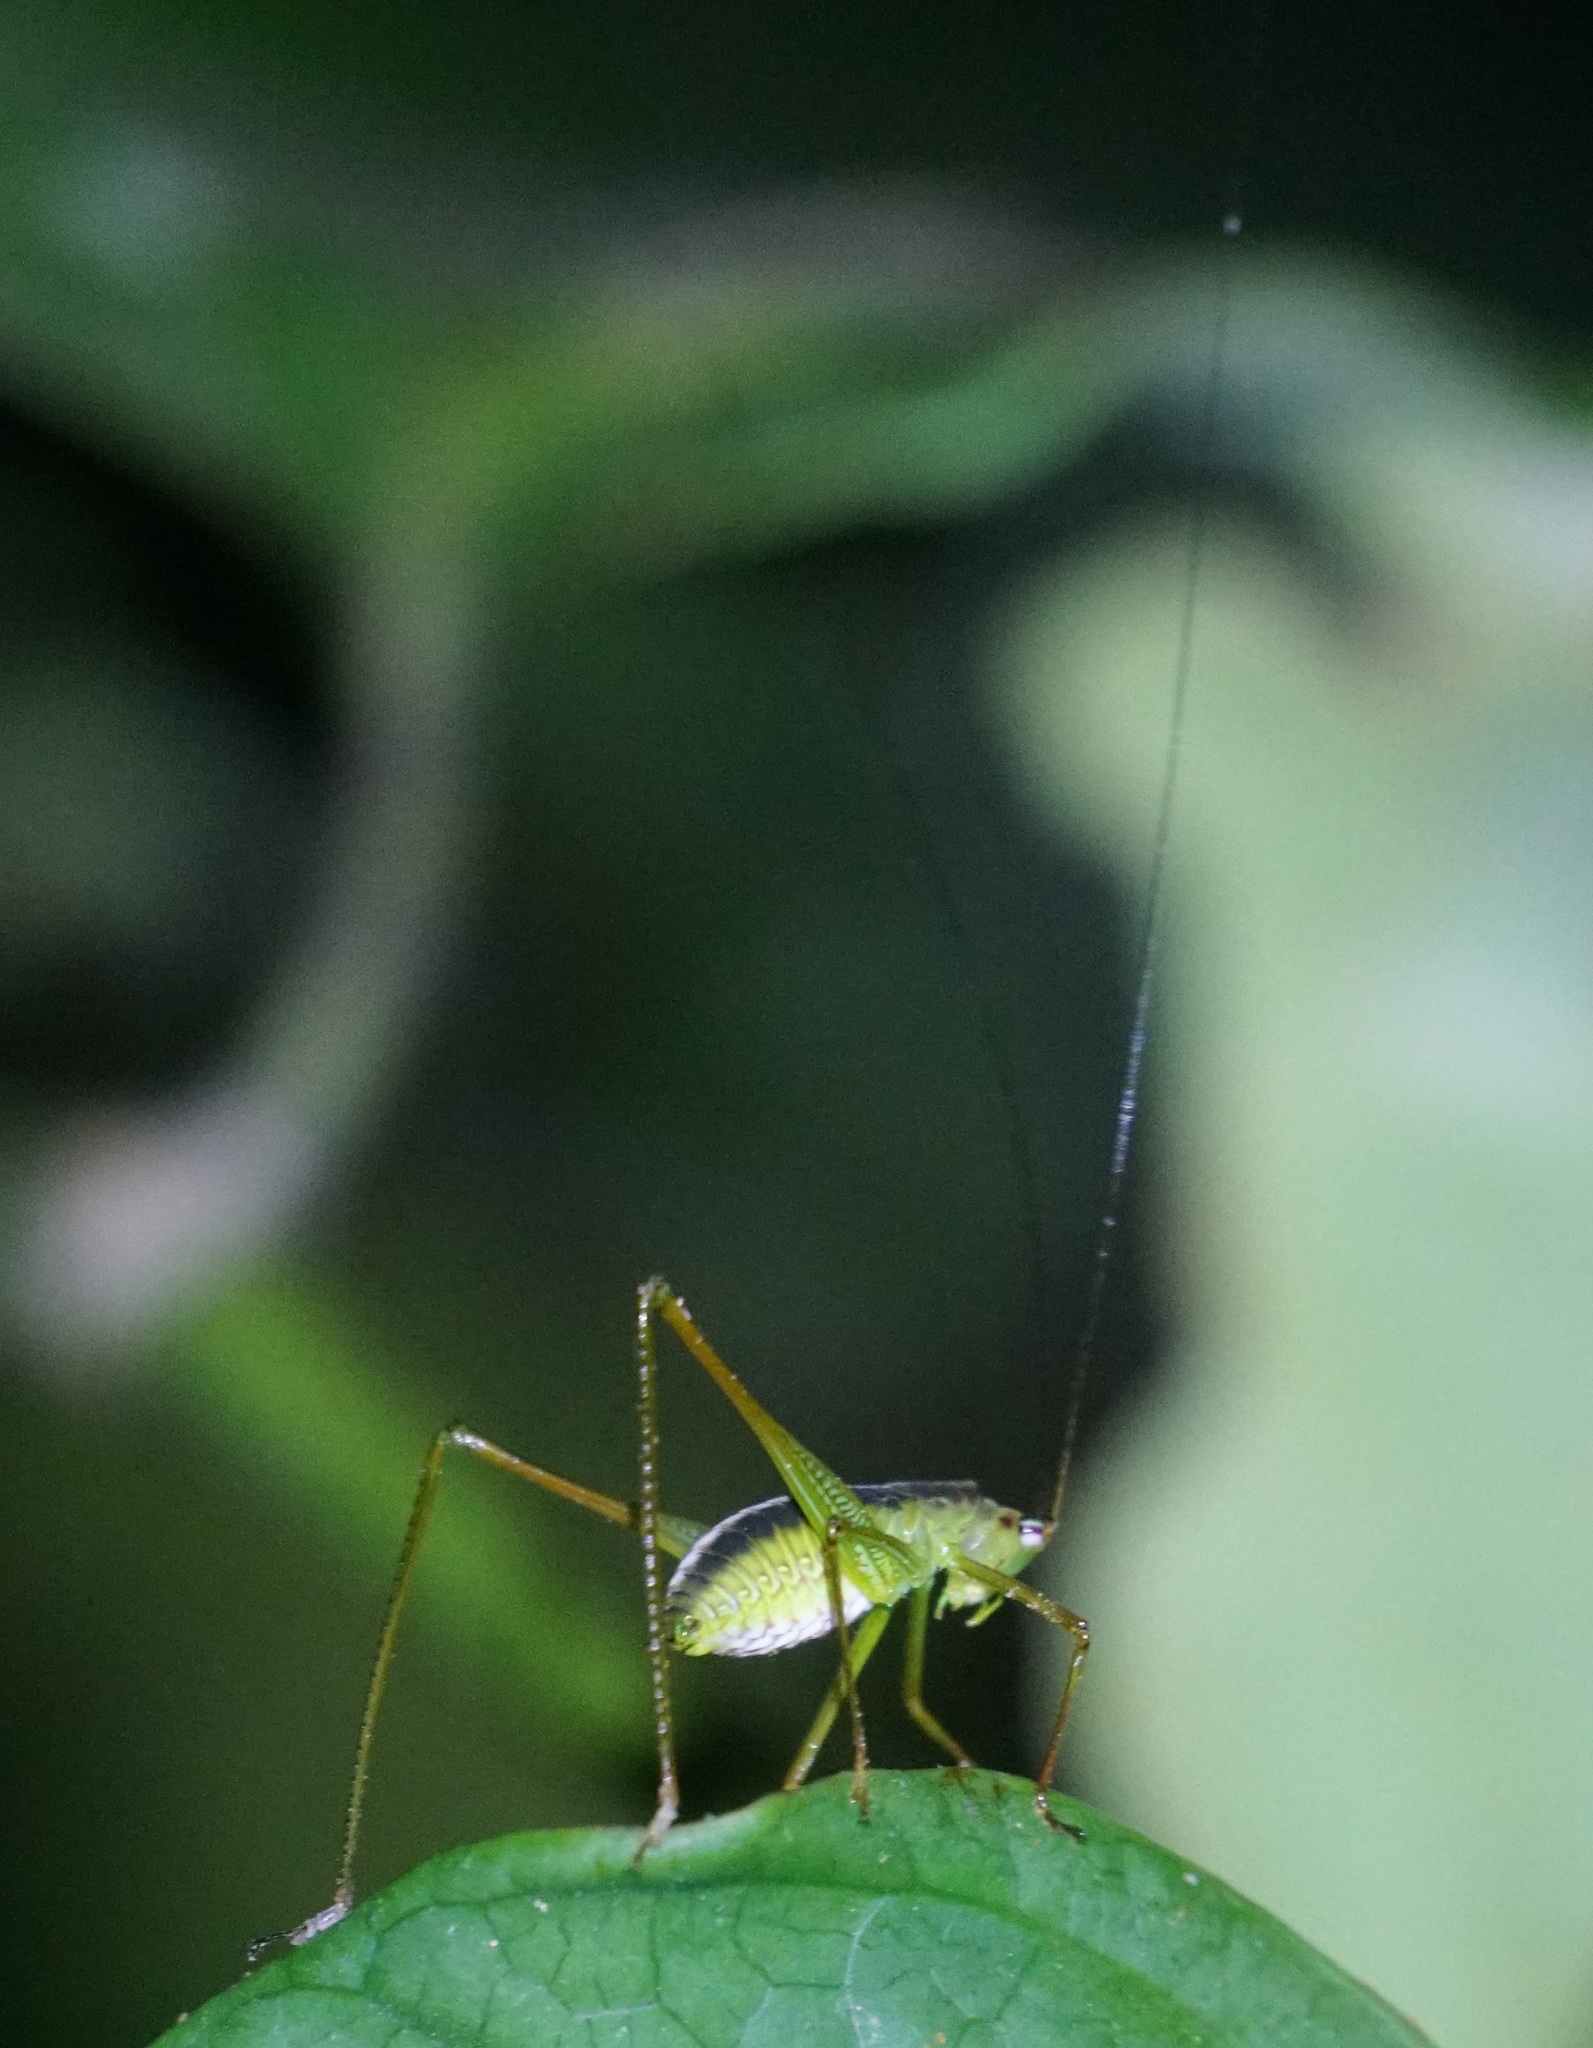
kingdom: Animalia
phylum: Arthropoda
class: Insecta
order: Orthoptera
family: Tettigoniidae
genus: Leucopodoptera
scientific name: Leucopodoptera eumundii
